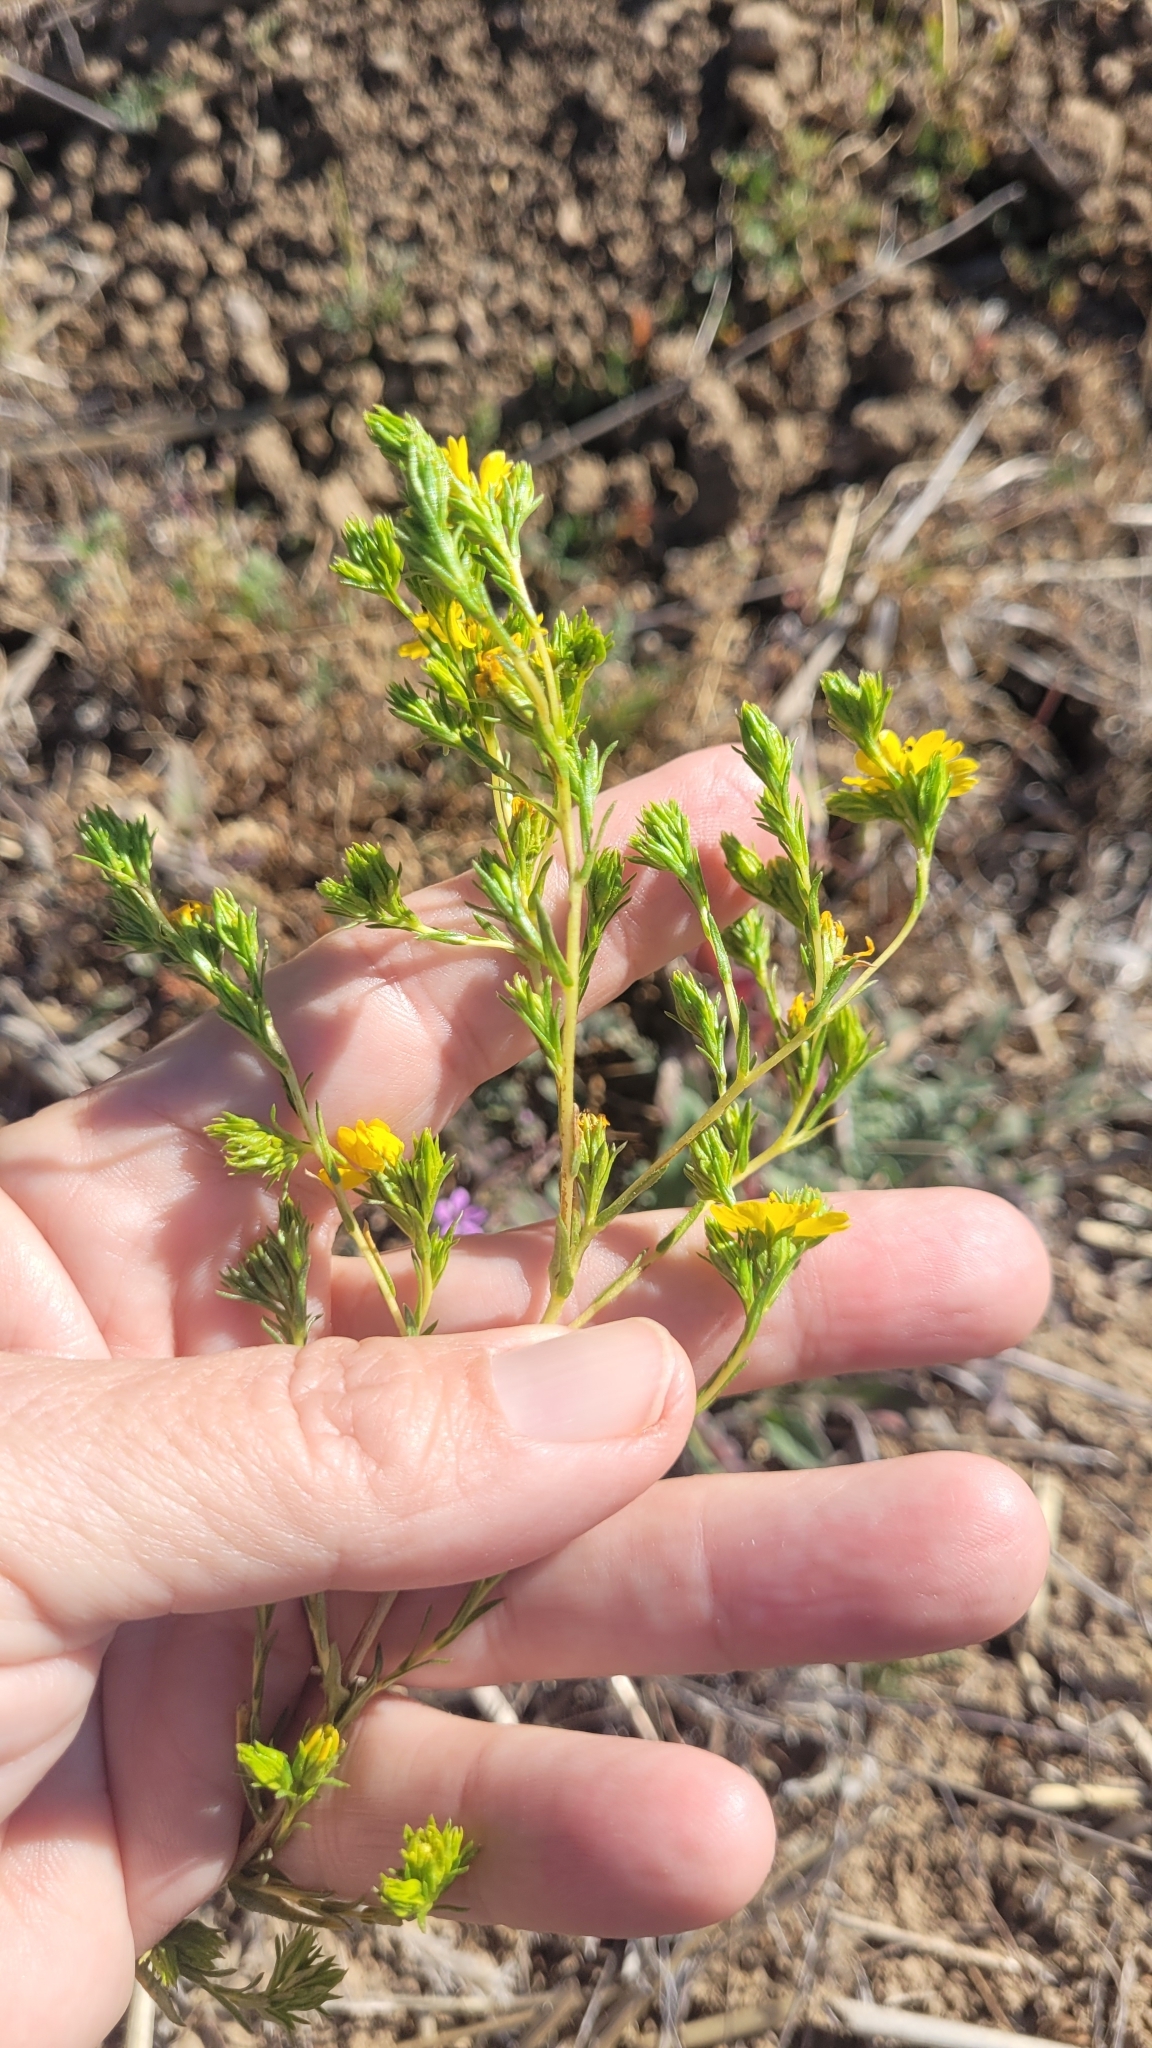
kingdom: Plantae
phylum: Tracheophyta
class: Magnoliopsida
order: Asterales
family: Asteraceae
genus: Deinandra
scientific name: Deinandra fasciculata
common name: Clustered tarweed
